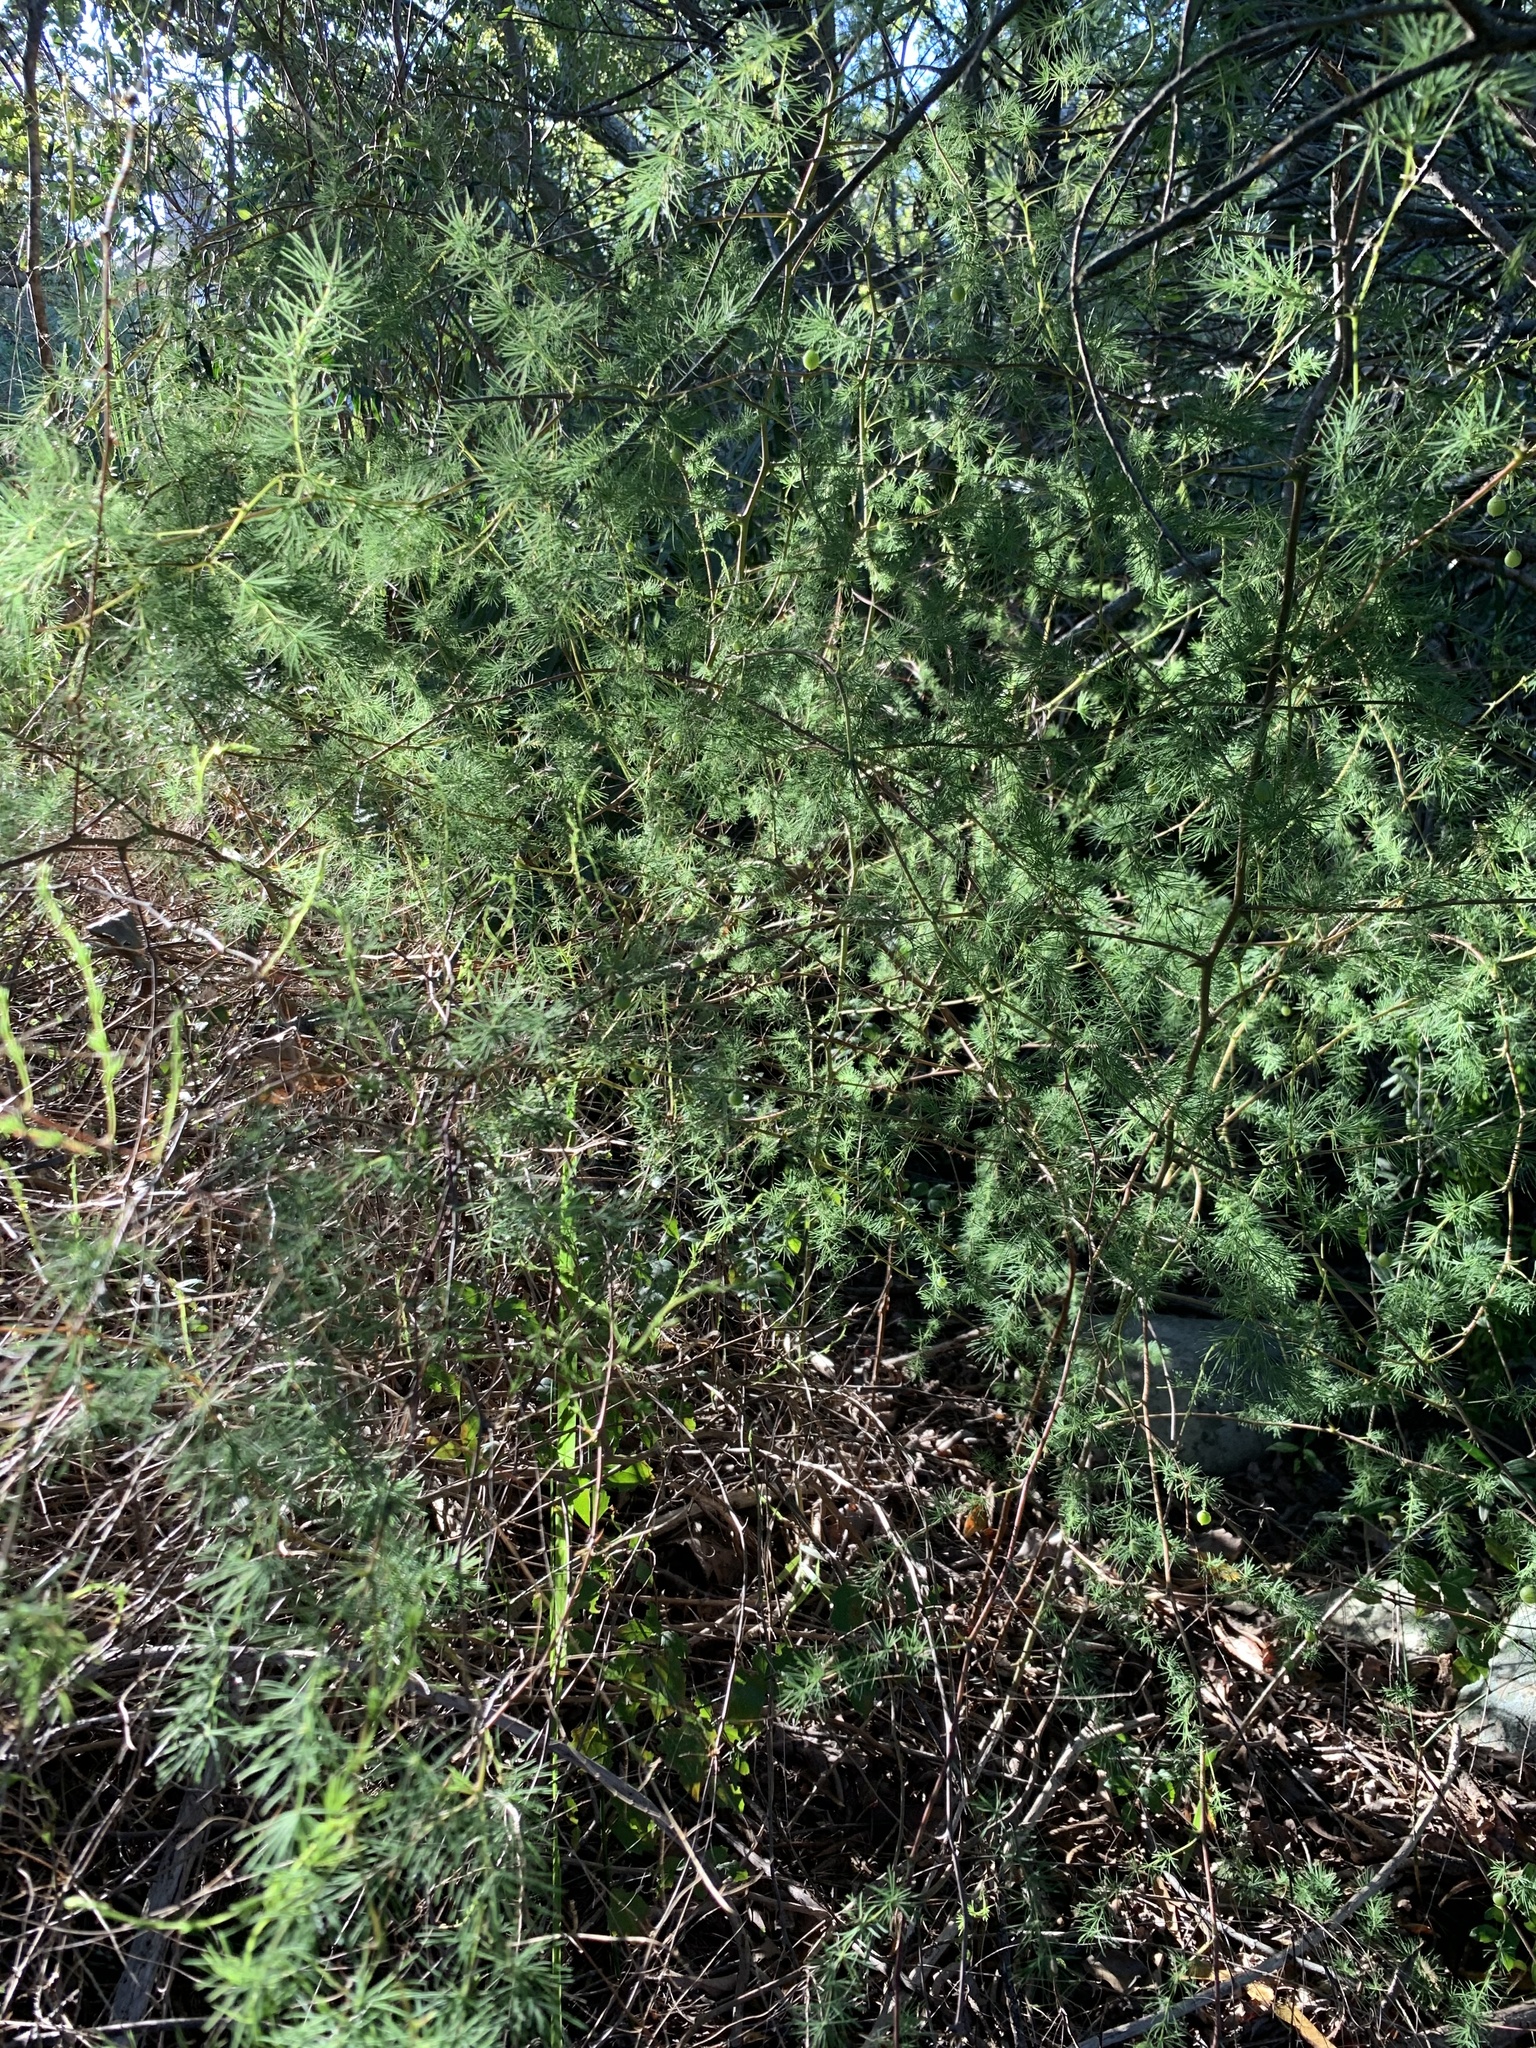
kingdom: Plantae
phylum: Tracheophyta
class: Liliopsida
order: Asparagales
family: Asparagaceae
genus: Asparagus
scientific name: Asparagus rubicundus
